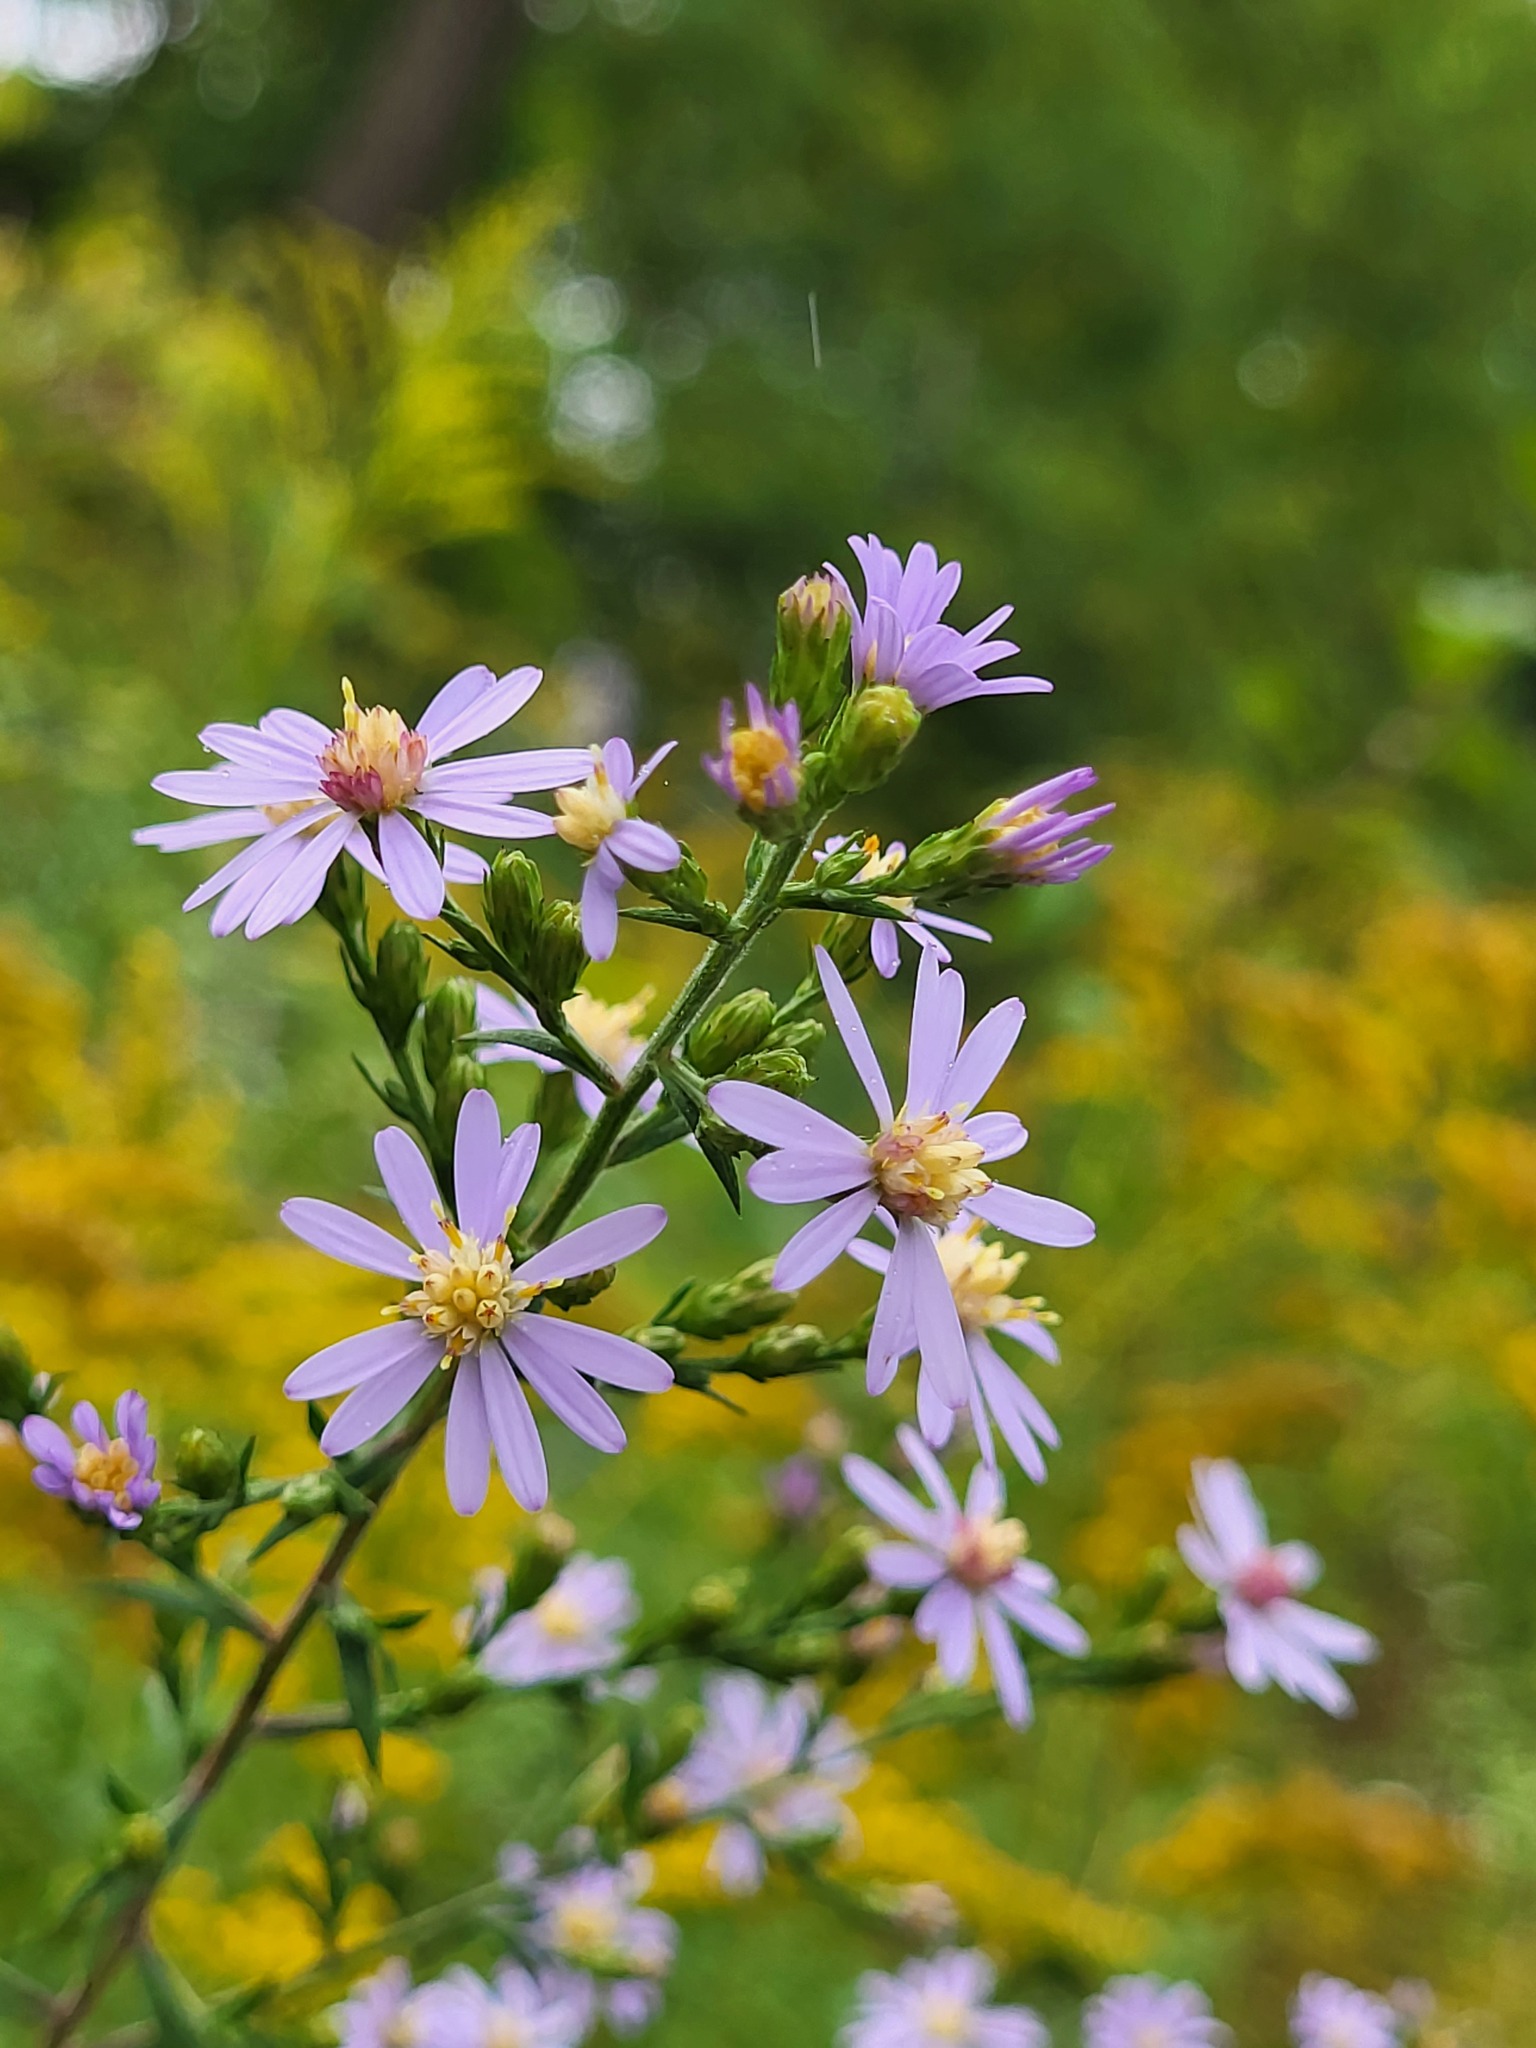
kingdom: Plantae
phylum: Tracheophyta
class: Magnoliopsida
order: Asterales
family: Asteraceae
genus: Symphyotrichum
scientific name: Symphyotrichum drummondii
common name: Drummond's aster
